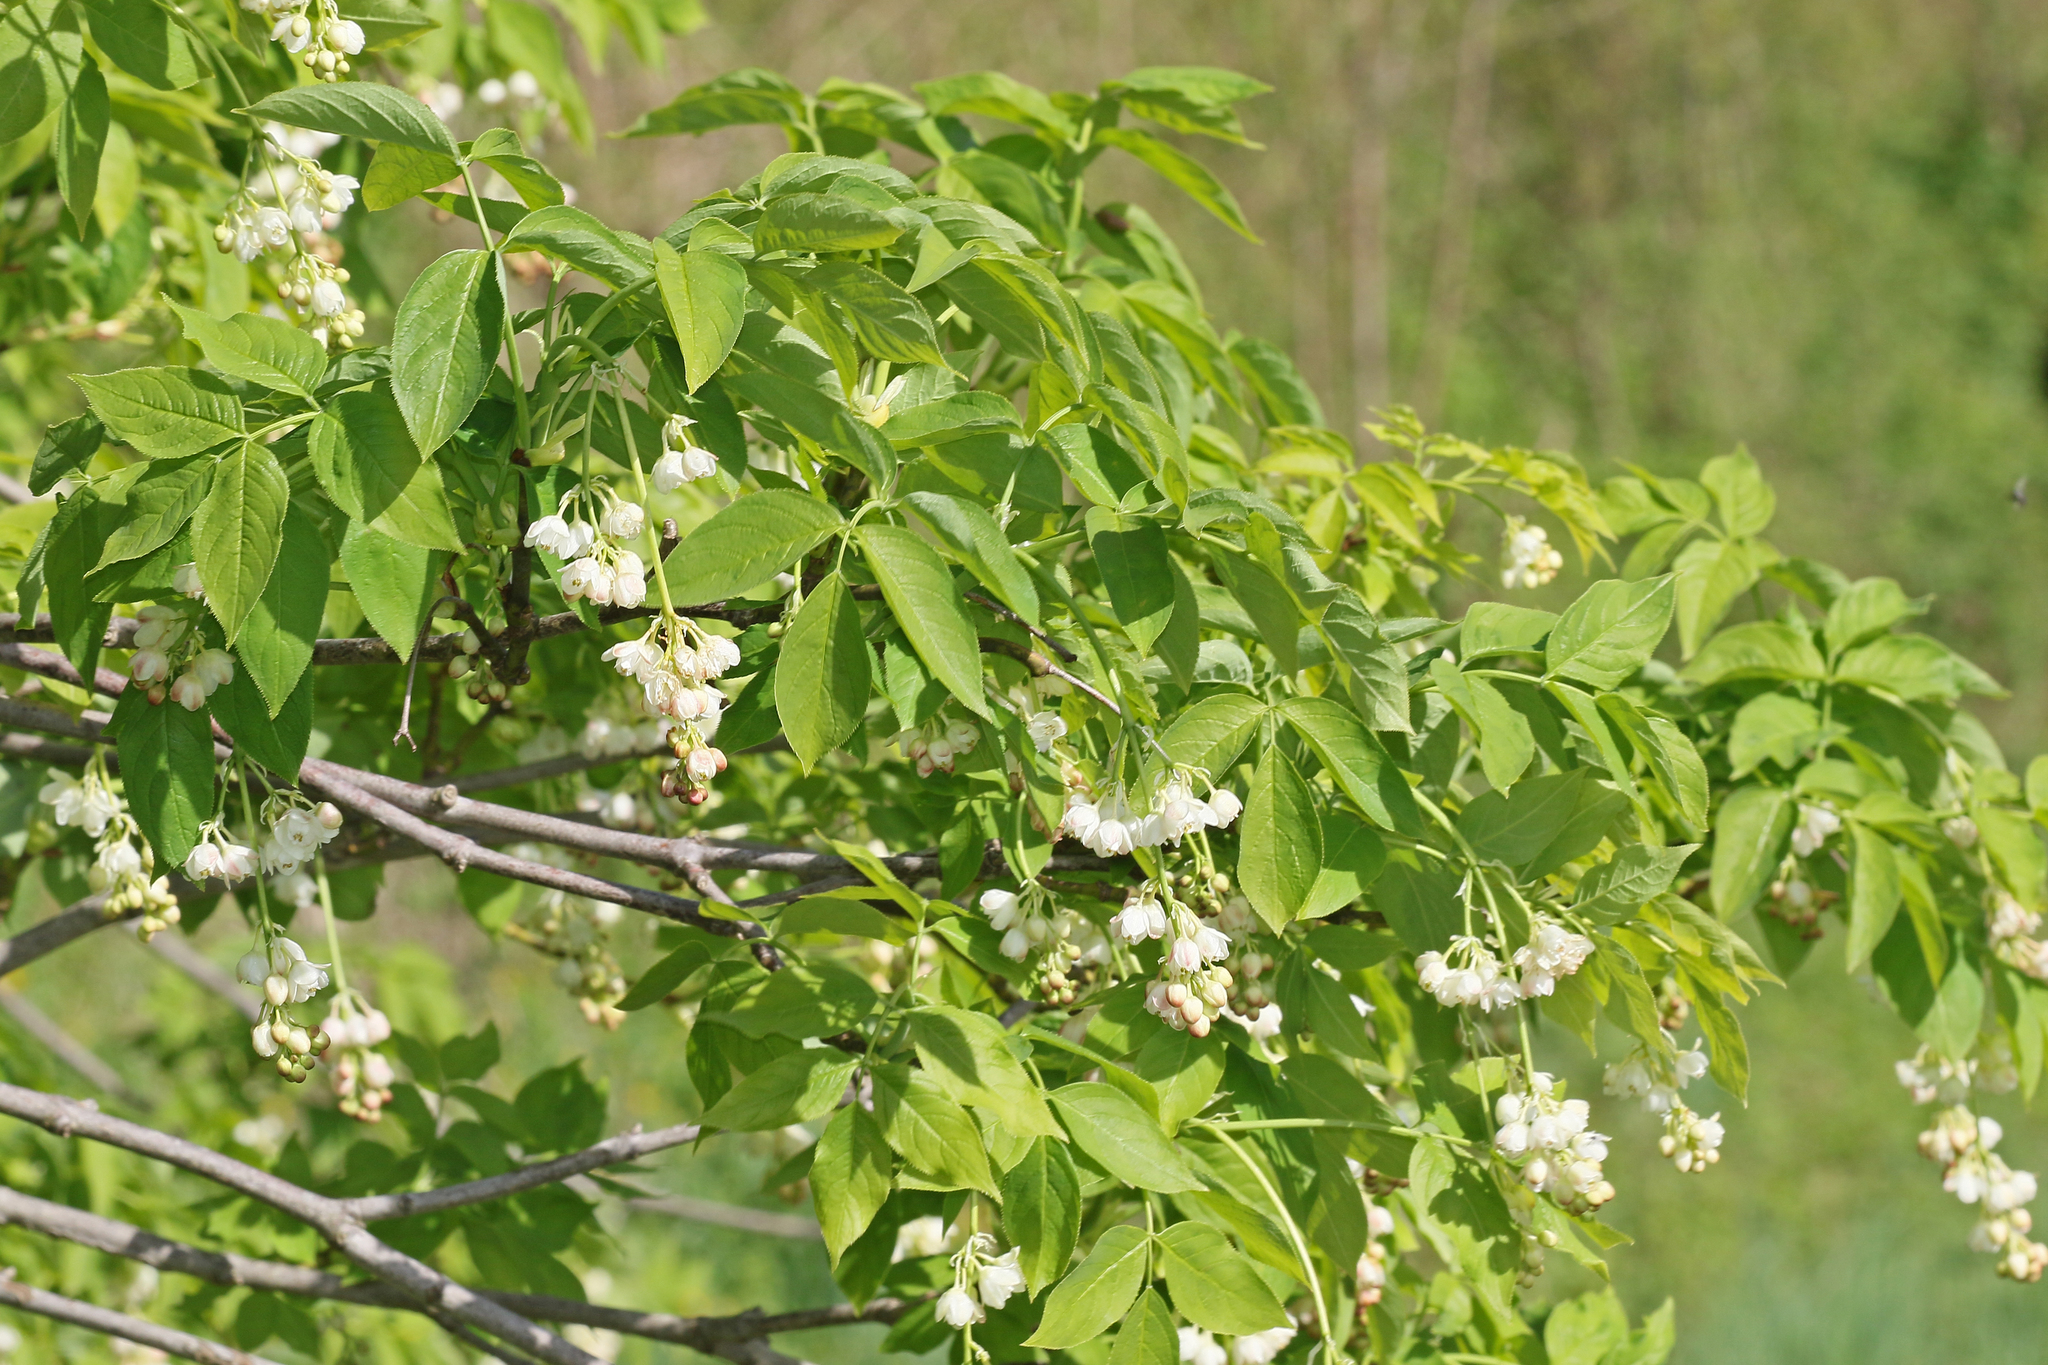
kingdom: Plantae
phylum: Tracheophyta
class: Magnoliopsida
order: Crossosomatales
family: Staphyleaceae
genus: Staphylea
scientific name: Staphylea pinnata
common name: Bladdernut
